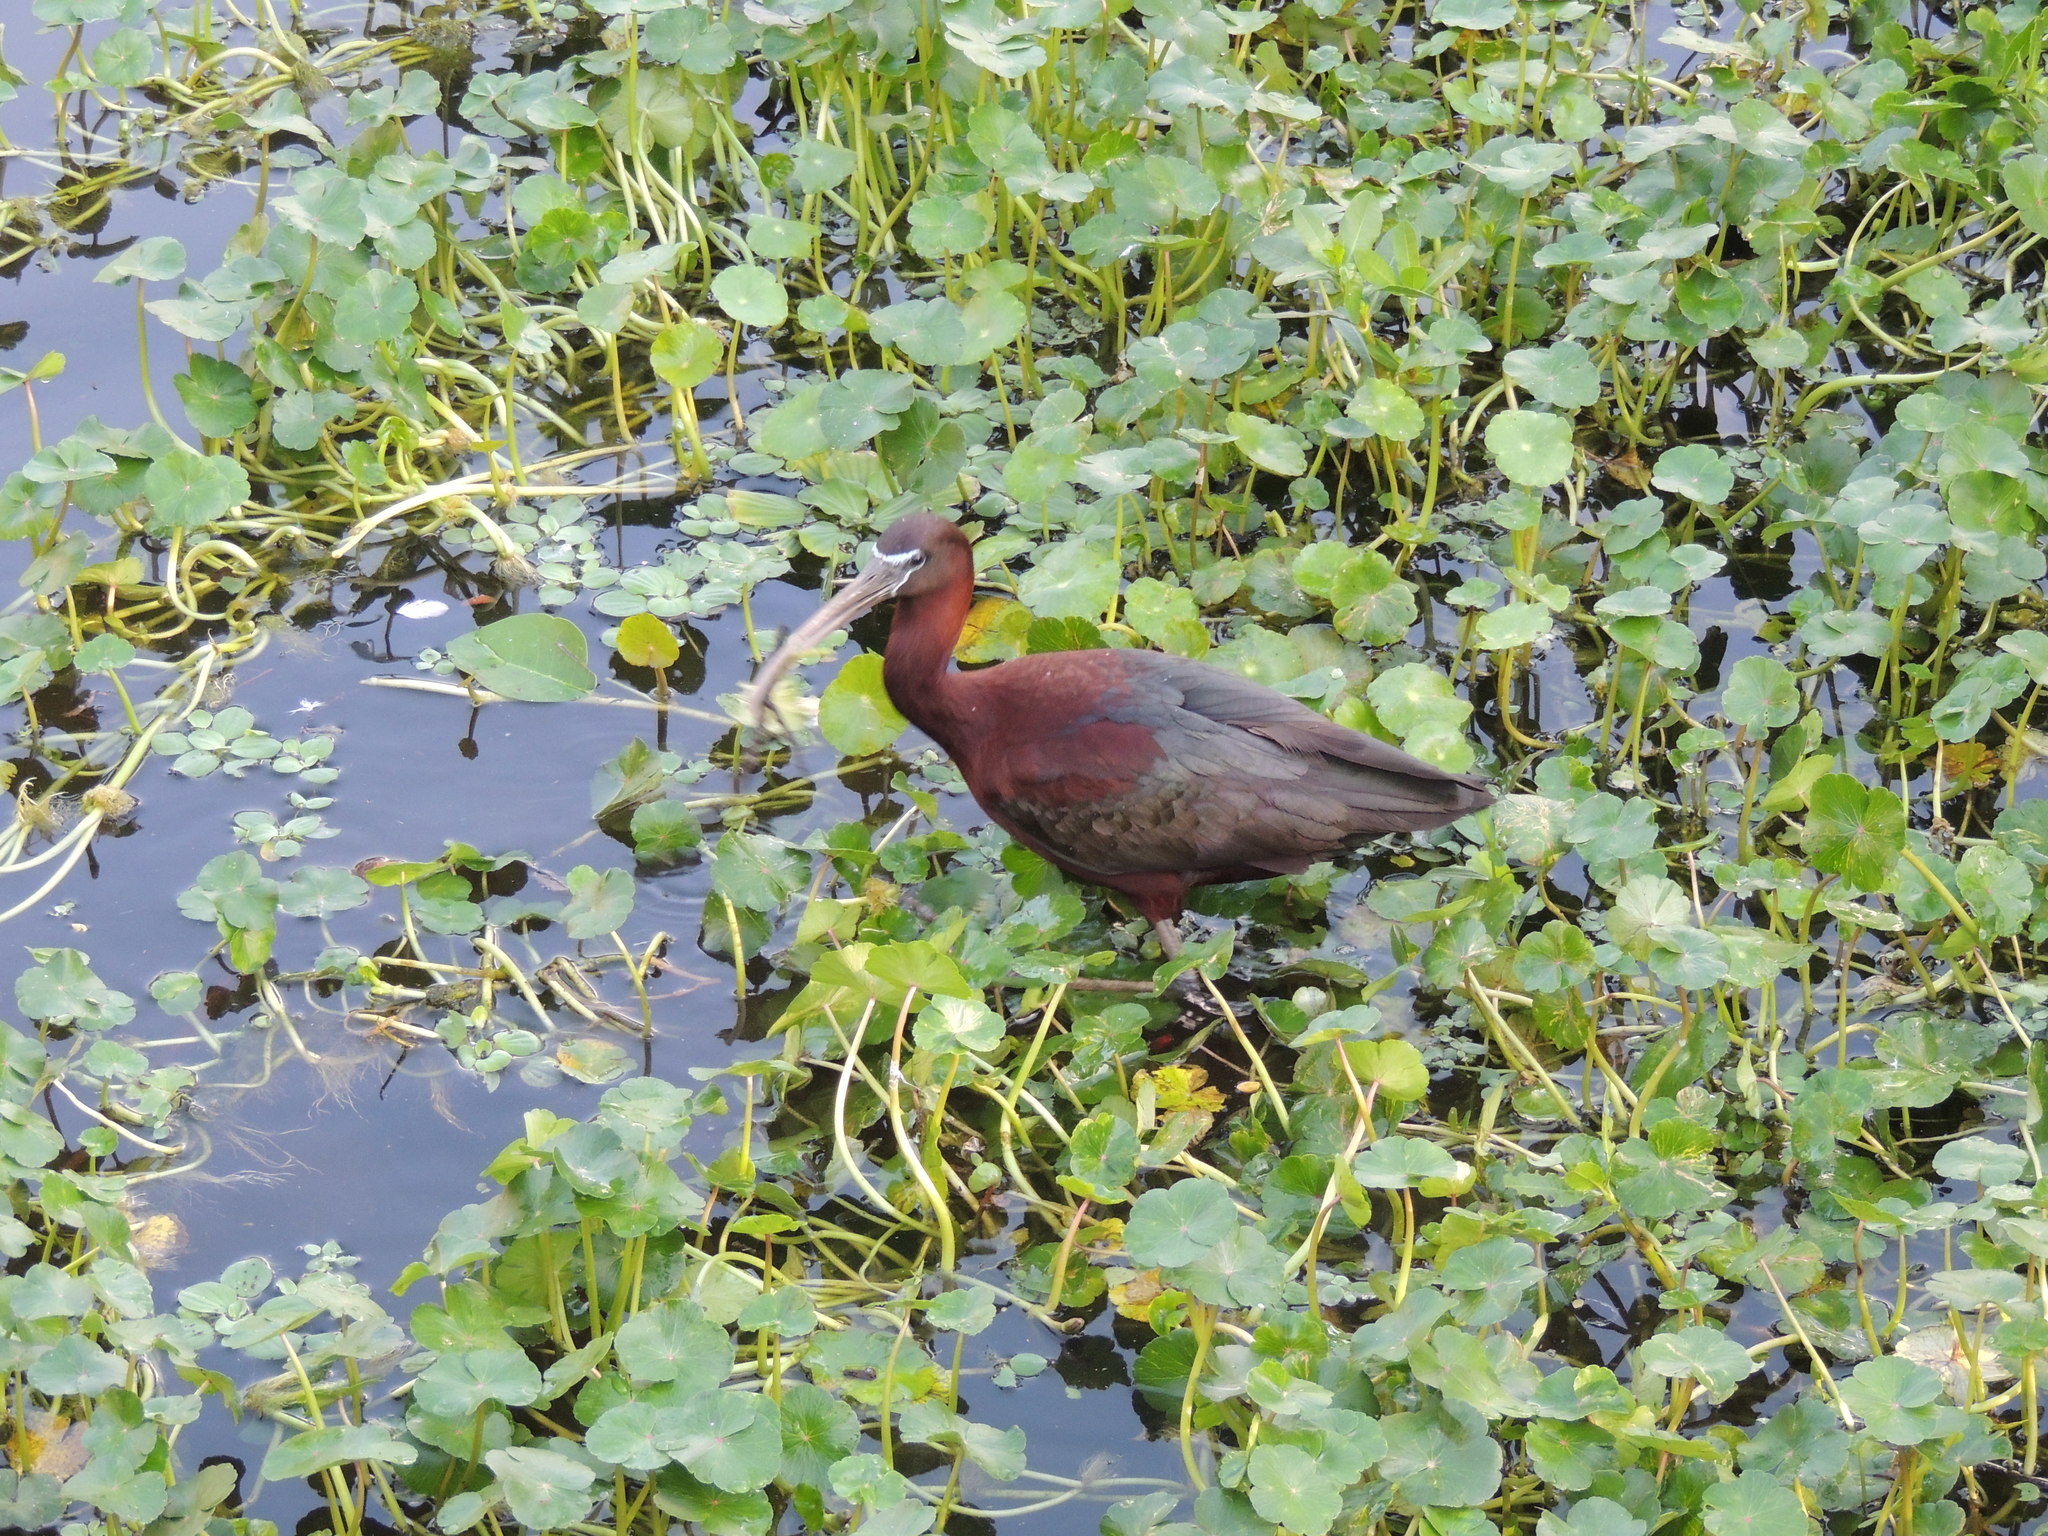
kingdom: Animalia
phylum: Chordata
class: Aves
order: Pelecaniformes
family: Threskiornithidae
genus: Plegadis
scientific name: Plegadis falcinellus
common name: Glossy ibis
